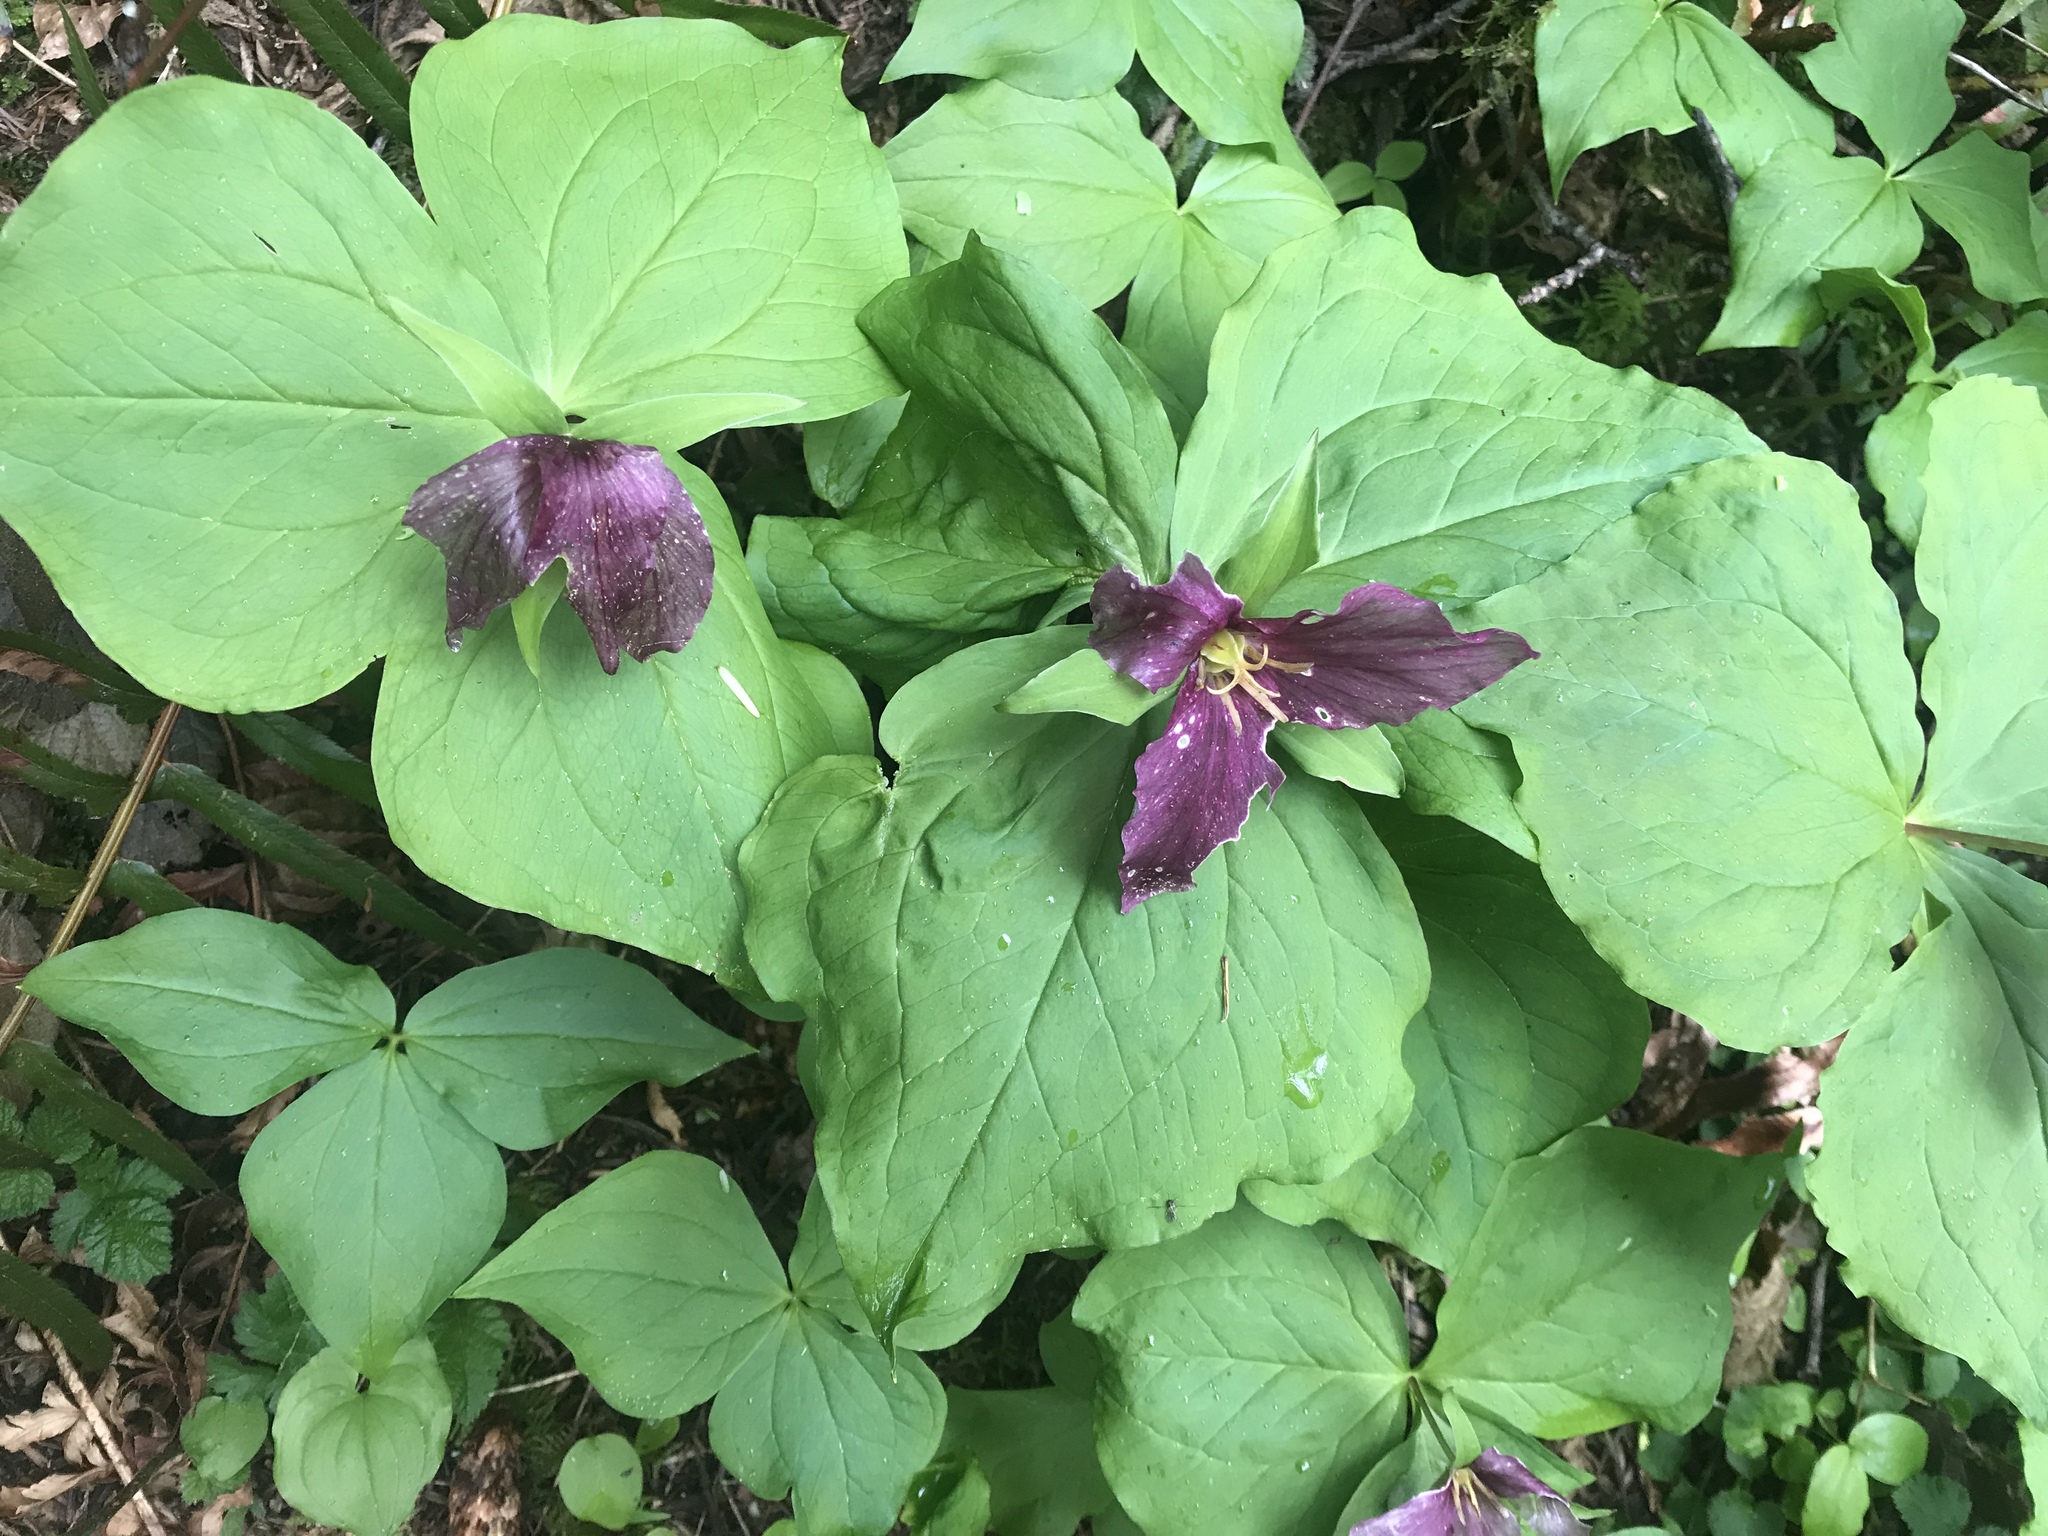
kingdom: Plantae
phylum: Tracheophyta
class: Liliopsida
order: Liliales
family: Melanthiaceae
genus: Trillium
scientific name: Trillium ovatum
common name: Pacific trillium
